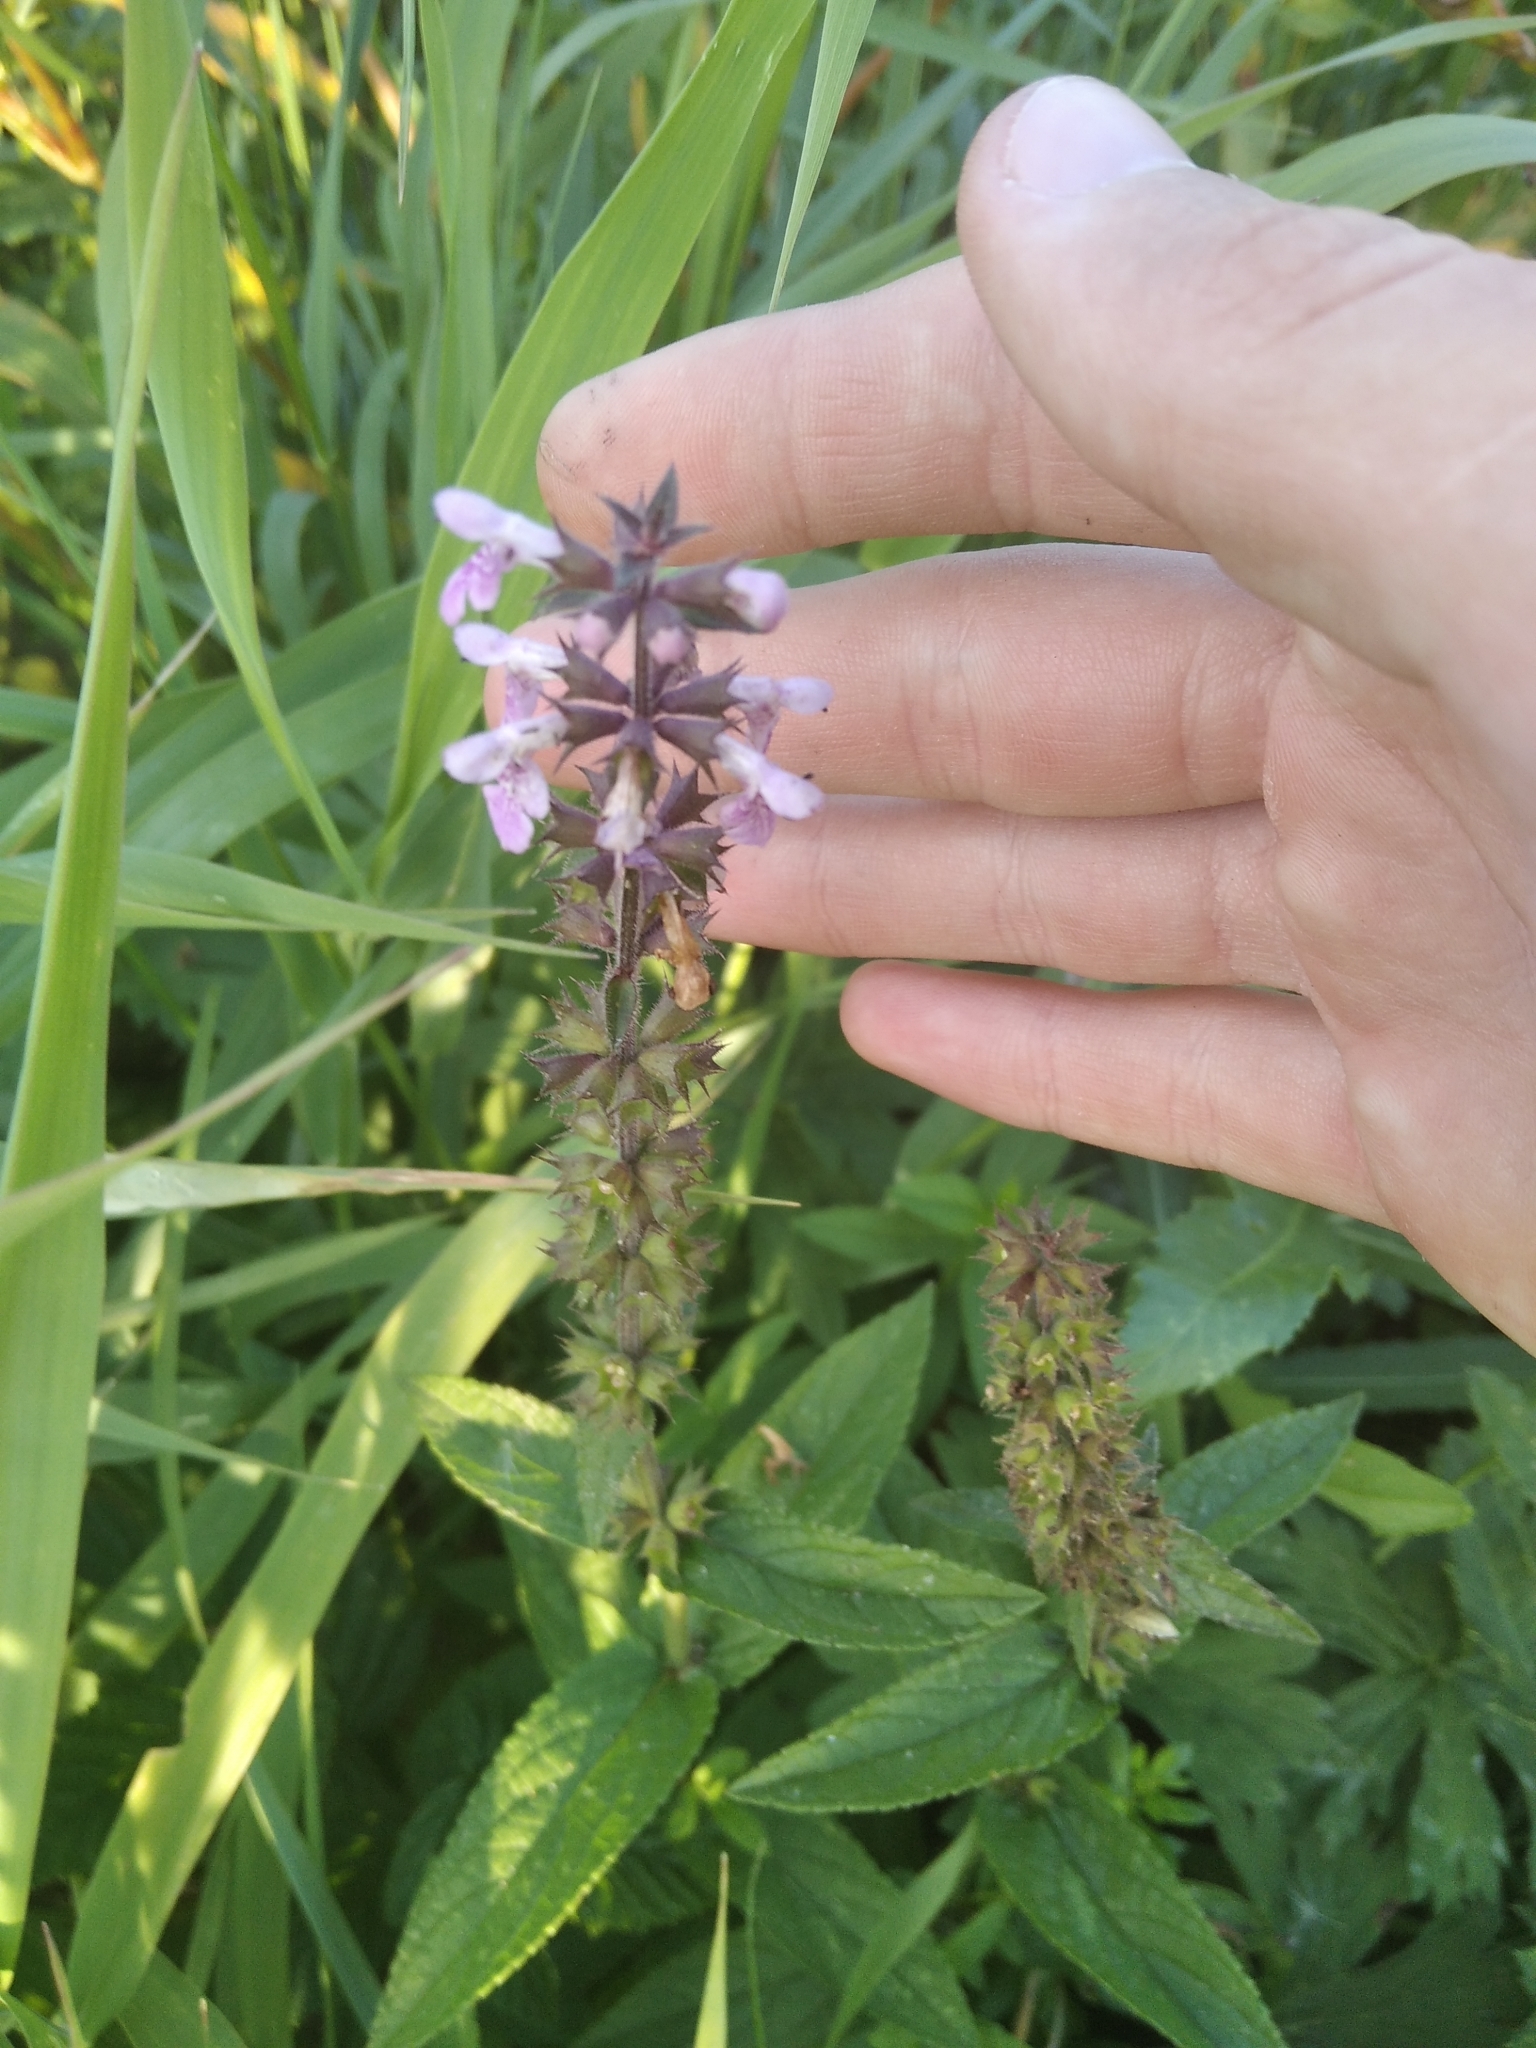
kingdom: Plantae
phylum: Tracheophyta
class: Magnoliopsida
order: Lamiales
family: Lamiaceae
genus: Stachys
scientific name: Stachys palustris
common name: Marsh woundwort
